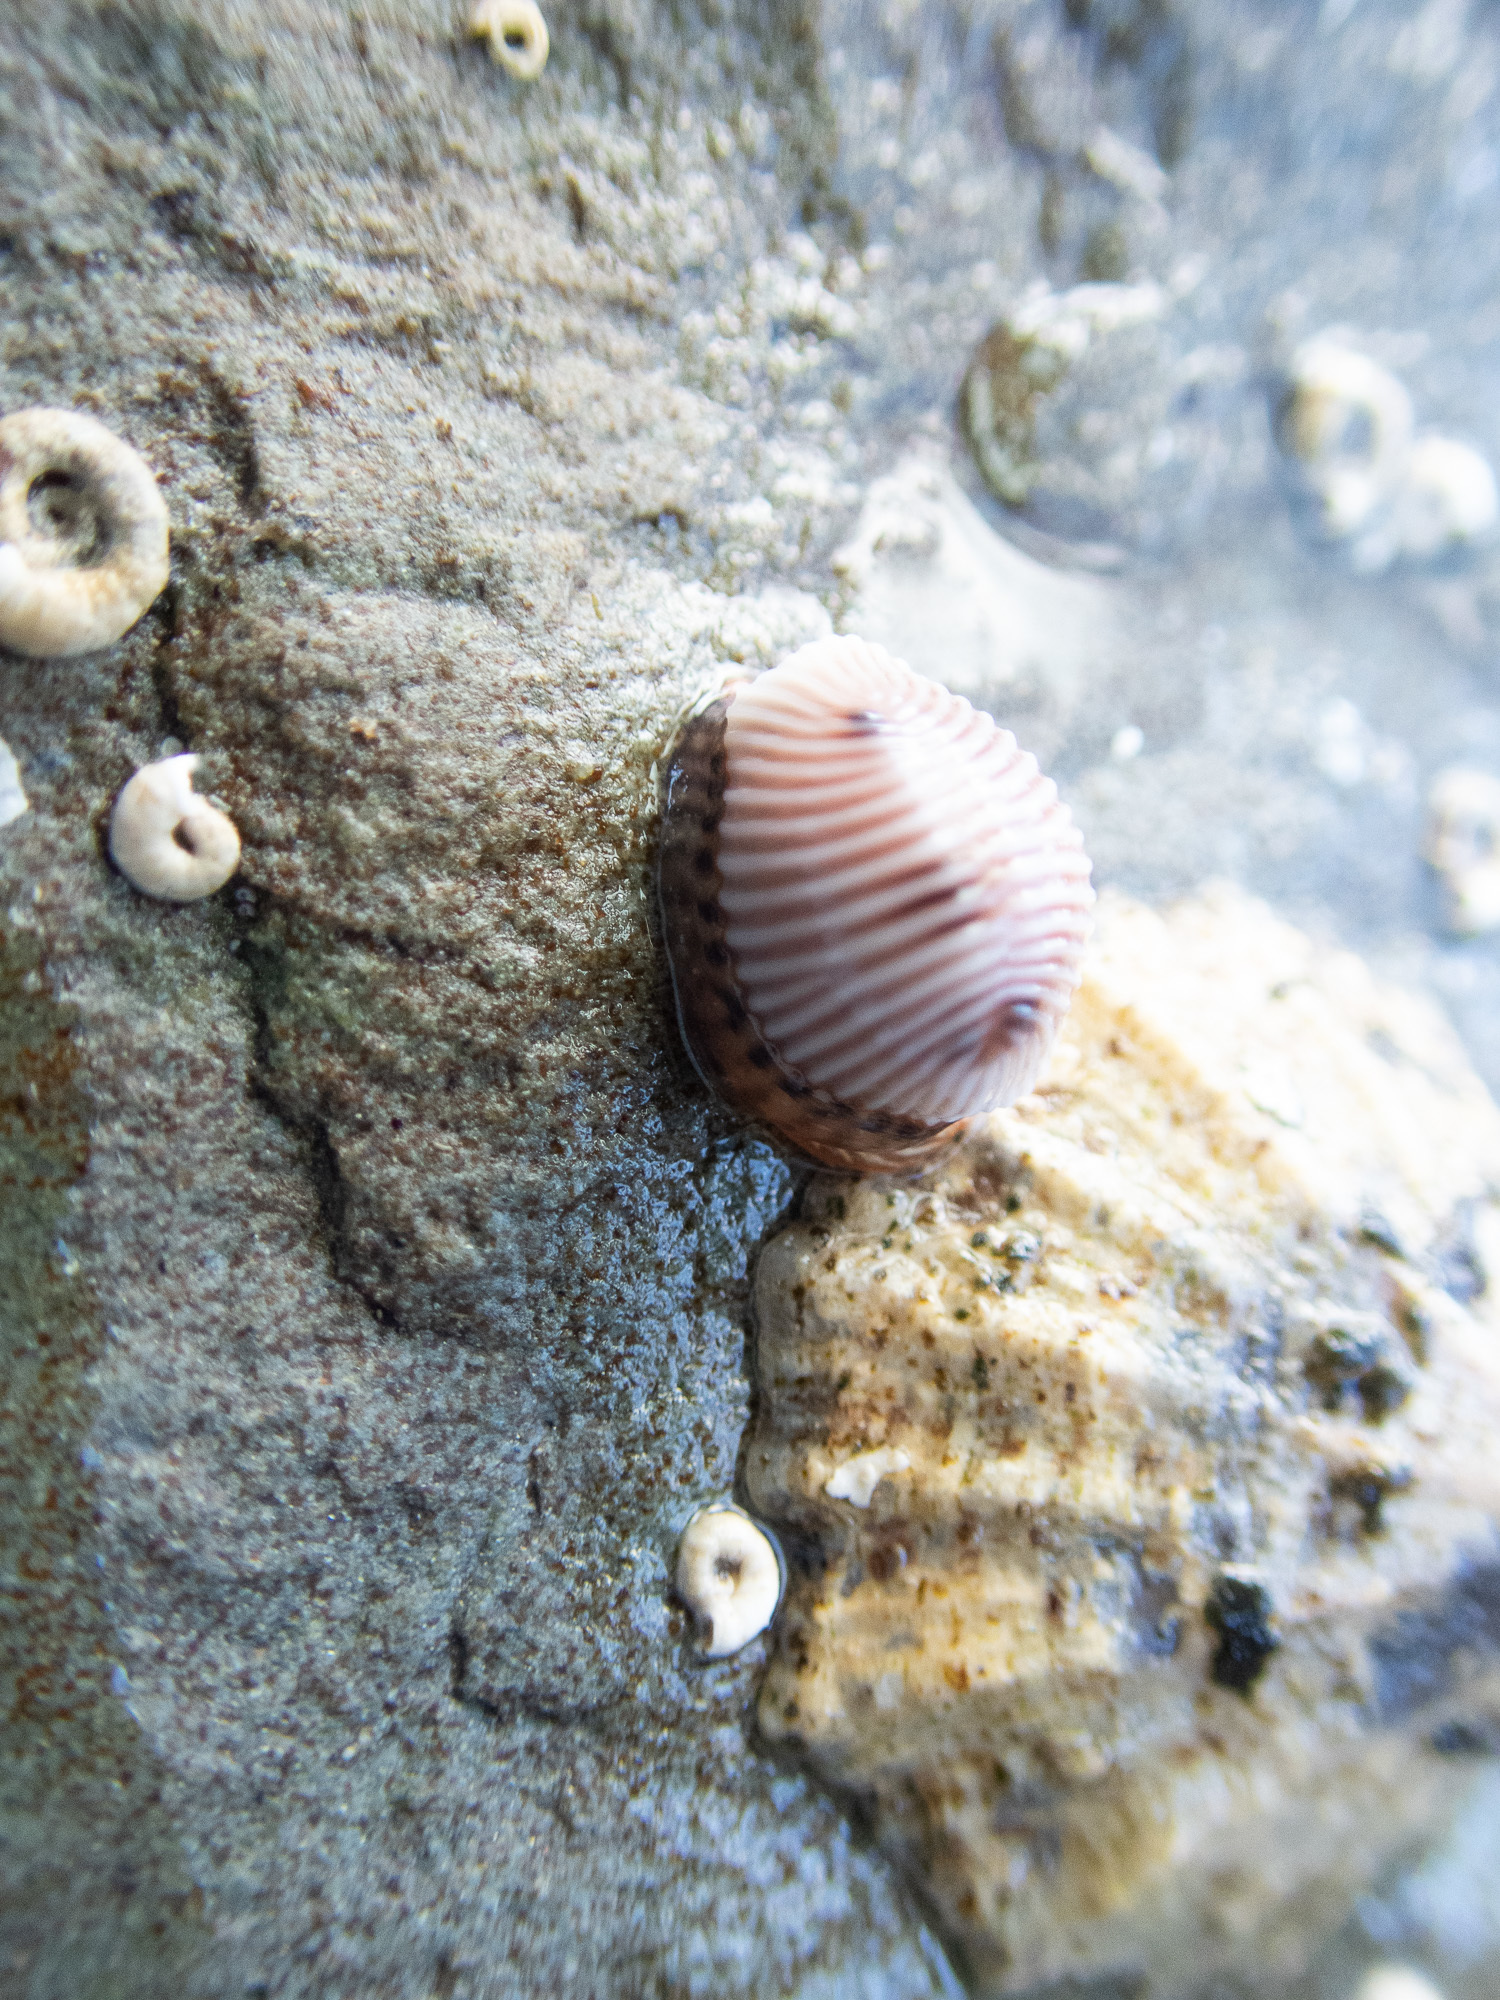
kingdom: Animalia
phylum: Mollusca
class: Gastropoda
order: Littorinimorpha
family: Triviidae
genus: Trivia
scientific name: Trivia monacha
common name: Spotted cowrie
